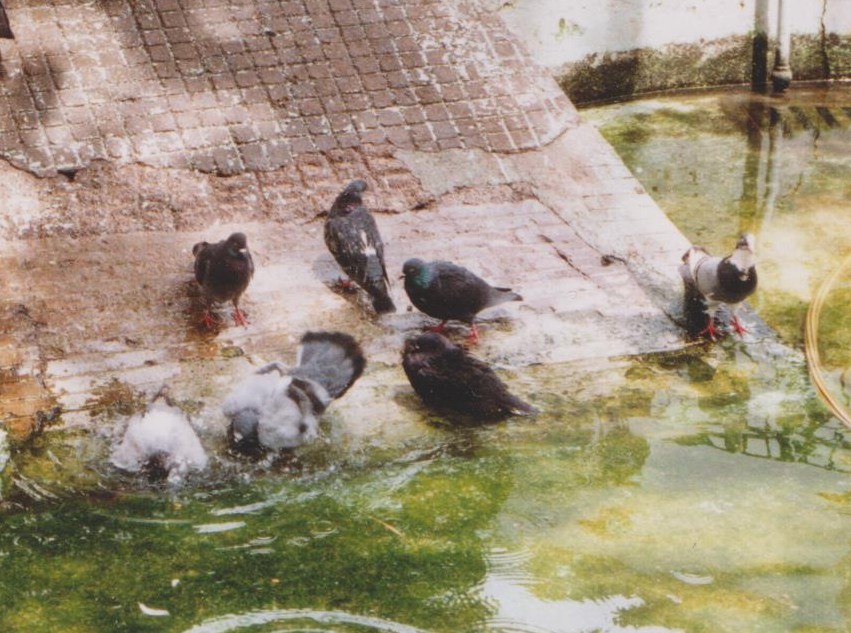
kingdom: Animalia
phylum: Chordata
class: Aves
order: Columbiformes
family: Columbidae
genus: Columba
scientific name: Columba livia
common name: Rock pigeon
